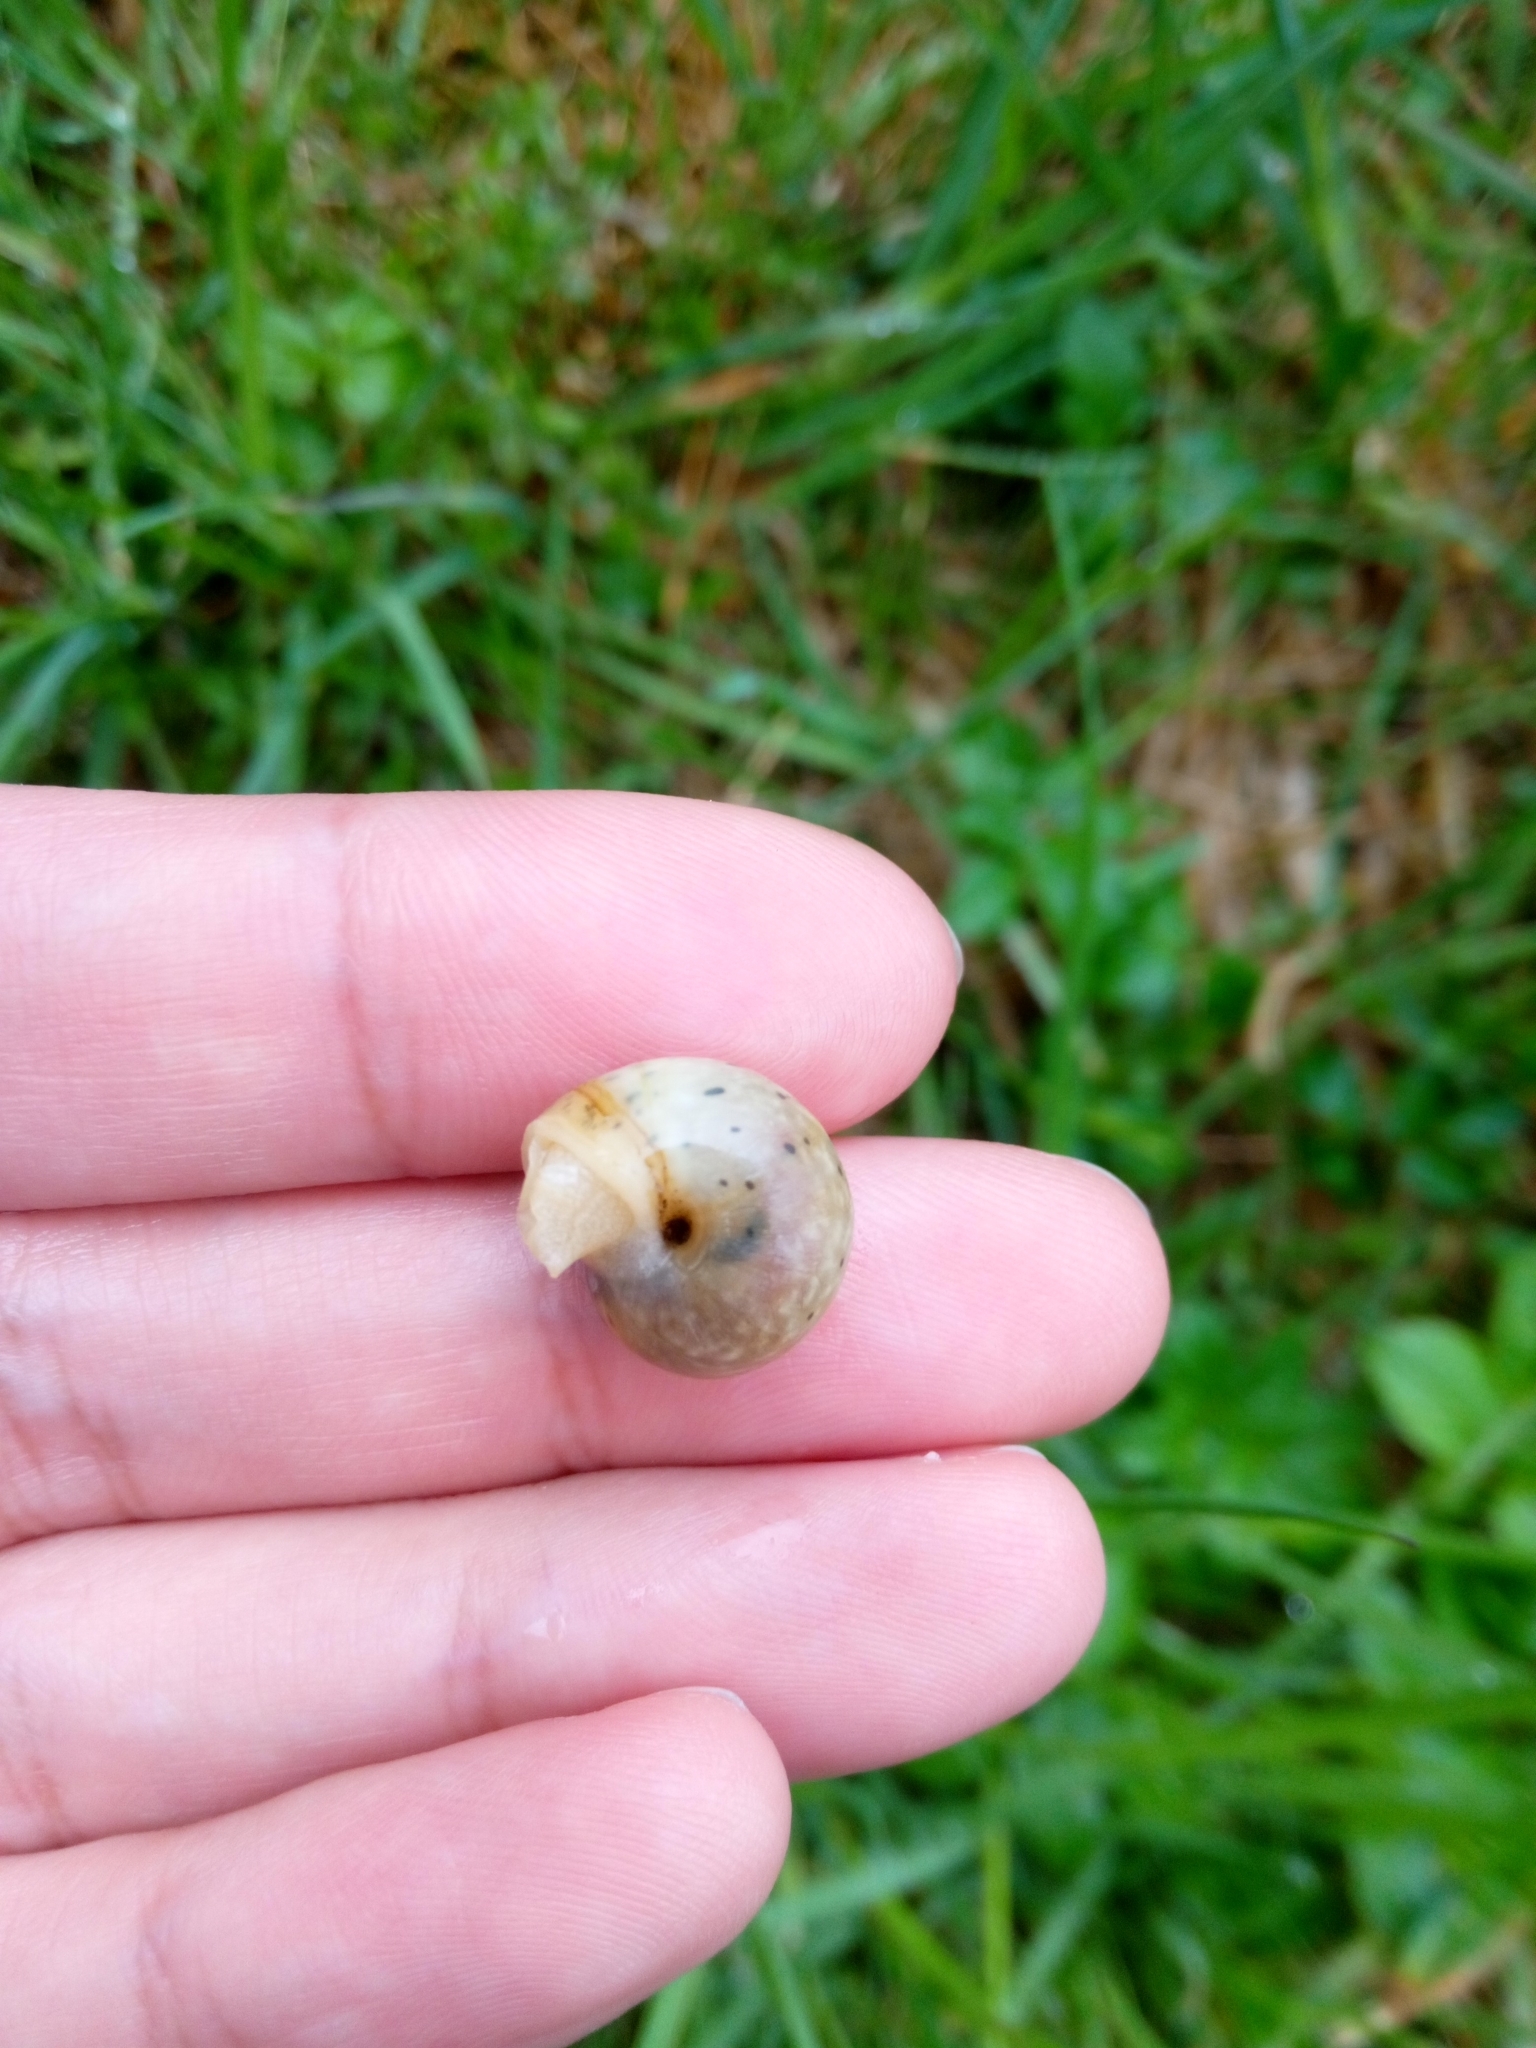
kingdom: Animalia
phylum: Mollusca
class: Gastropoda
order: Stylommatophora
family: Camaenidae
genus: Fruticicola
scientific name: Fruticicola fruticum
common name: Bush snail
